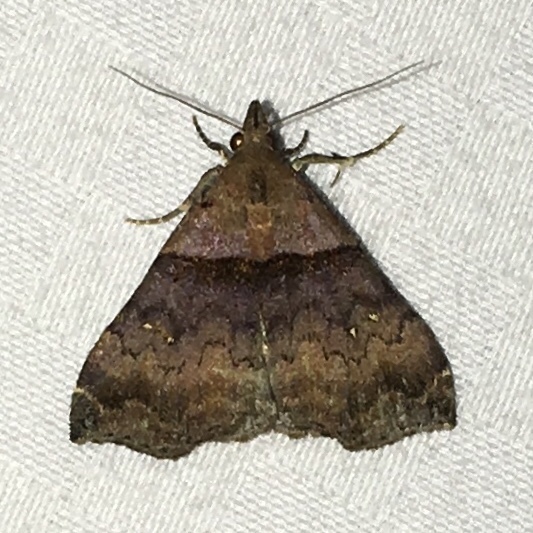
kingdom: Animalia
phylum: Arthropoda
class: Insecta
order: Lepidoptera
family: Erebidae
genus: Lascoria
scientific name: Lascoria ambigualis
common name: Ambiguous moth
